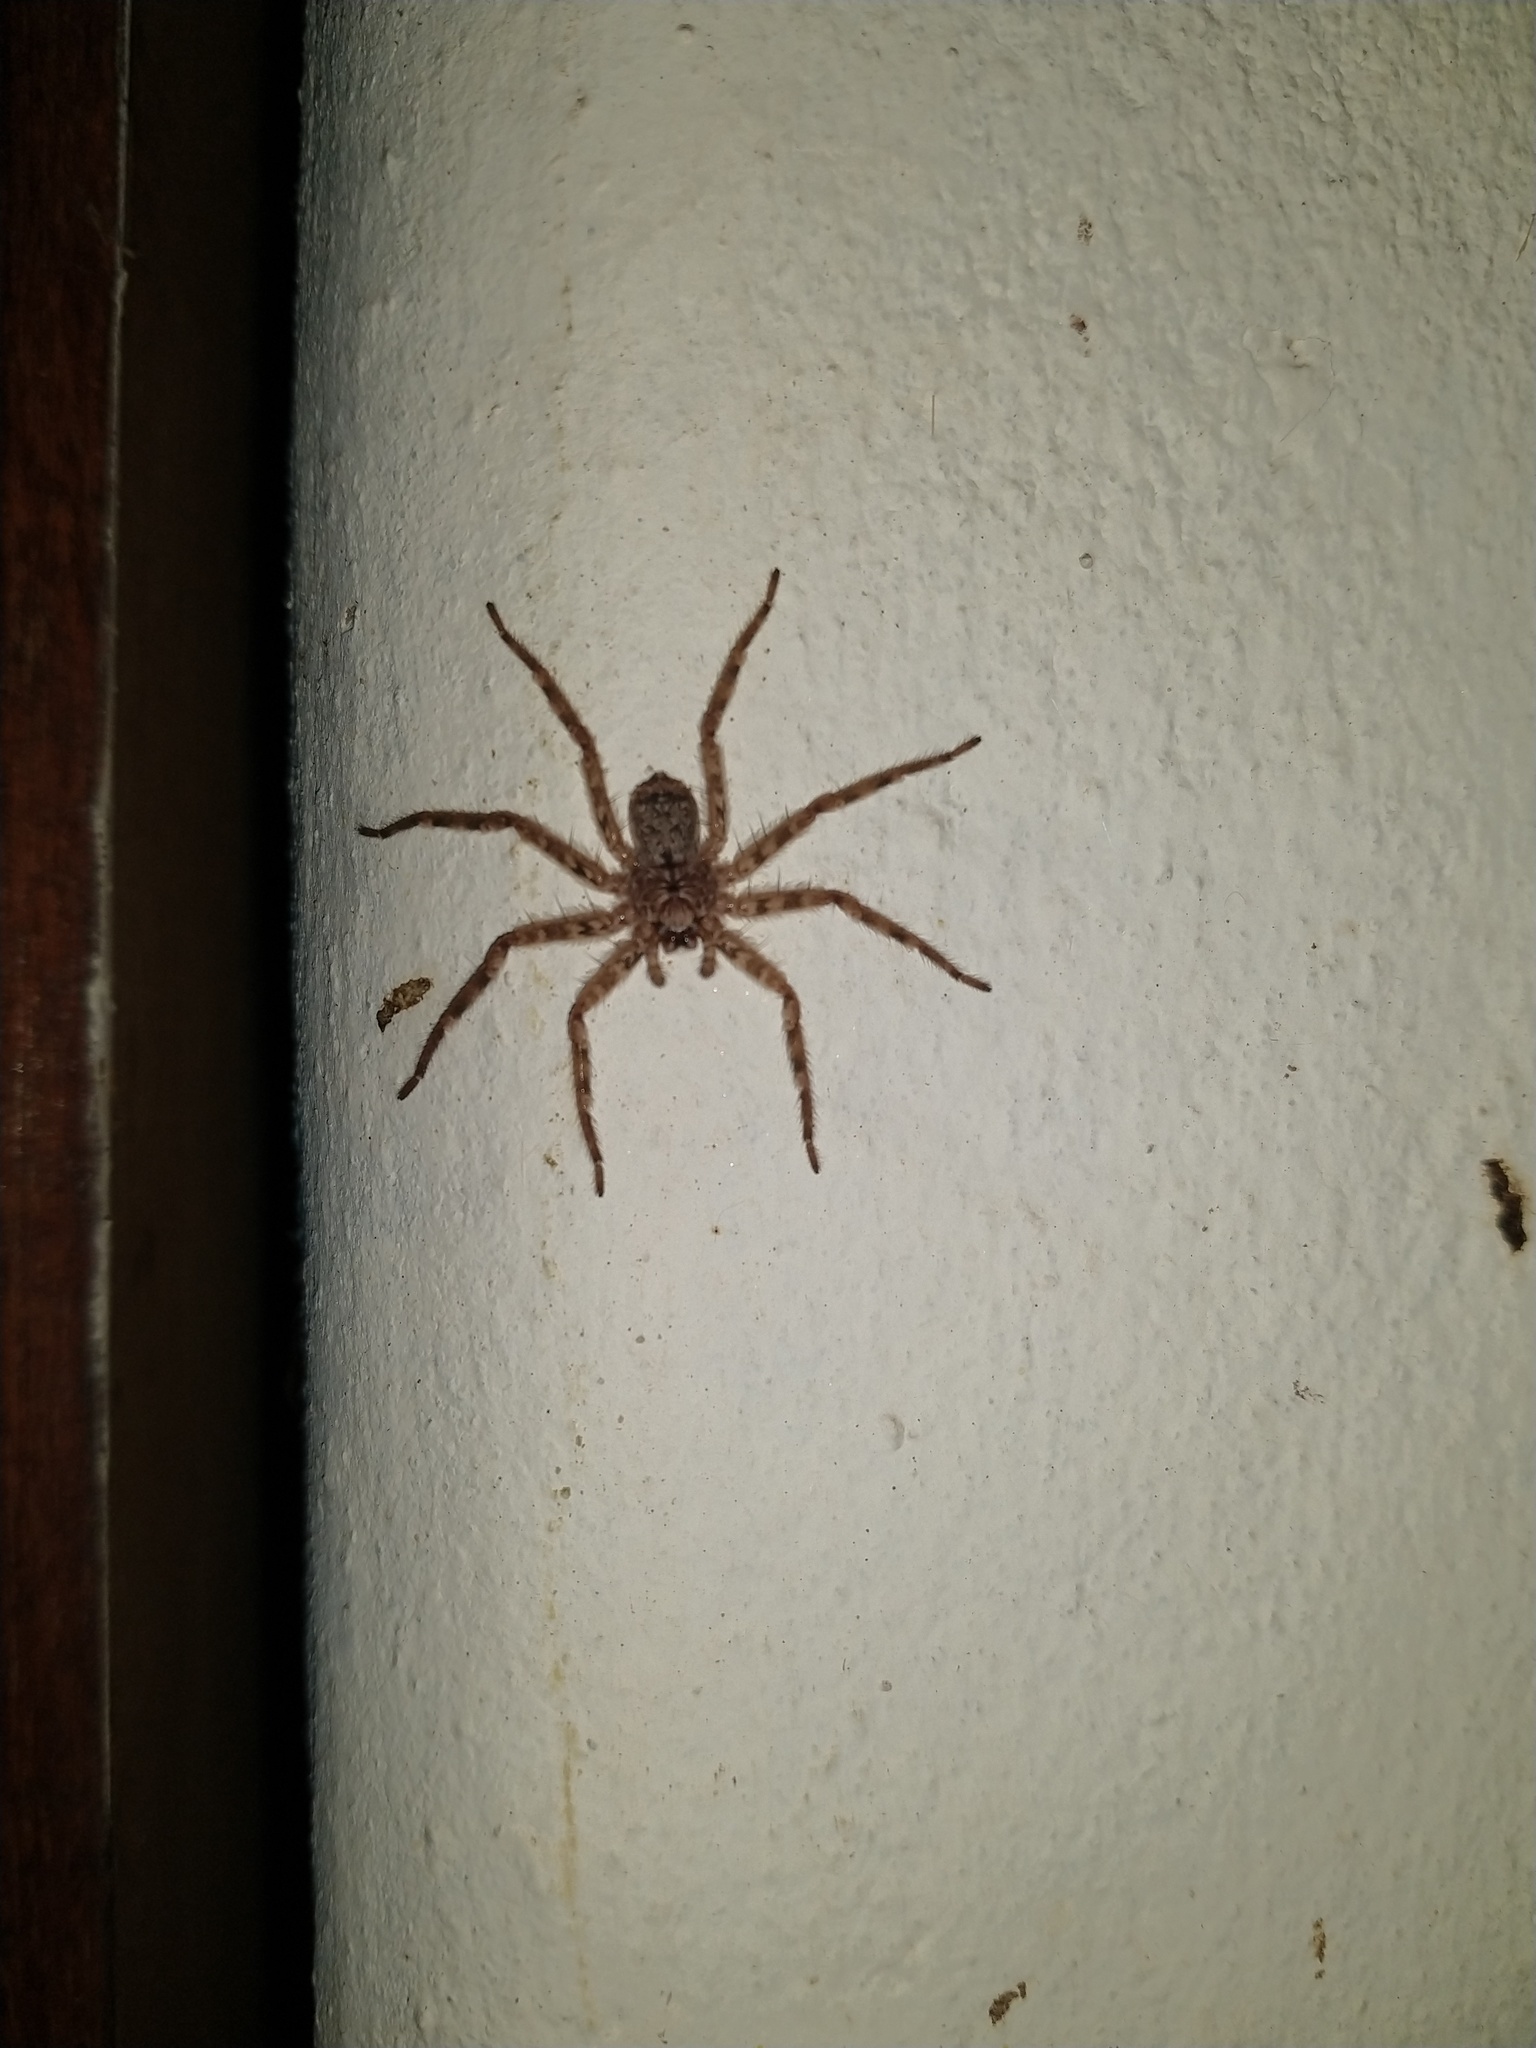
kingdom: Animalia
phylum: Arthropoda
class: Arachnida
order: Araneae
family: Selenopidae
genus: Selenops
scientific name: Selenops
